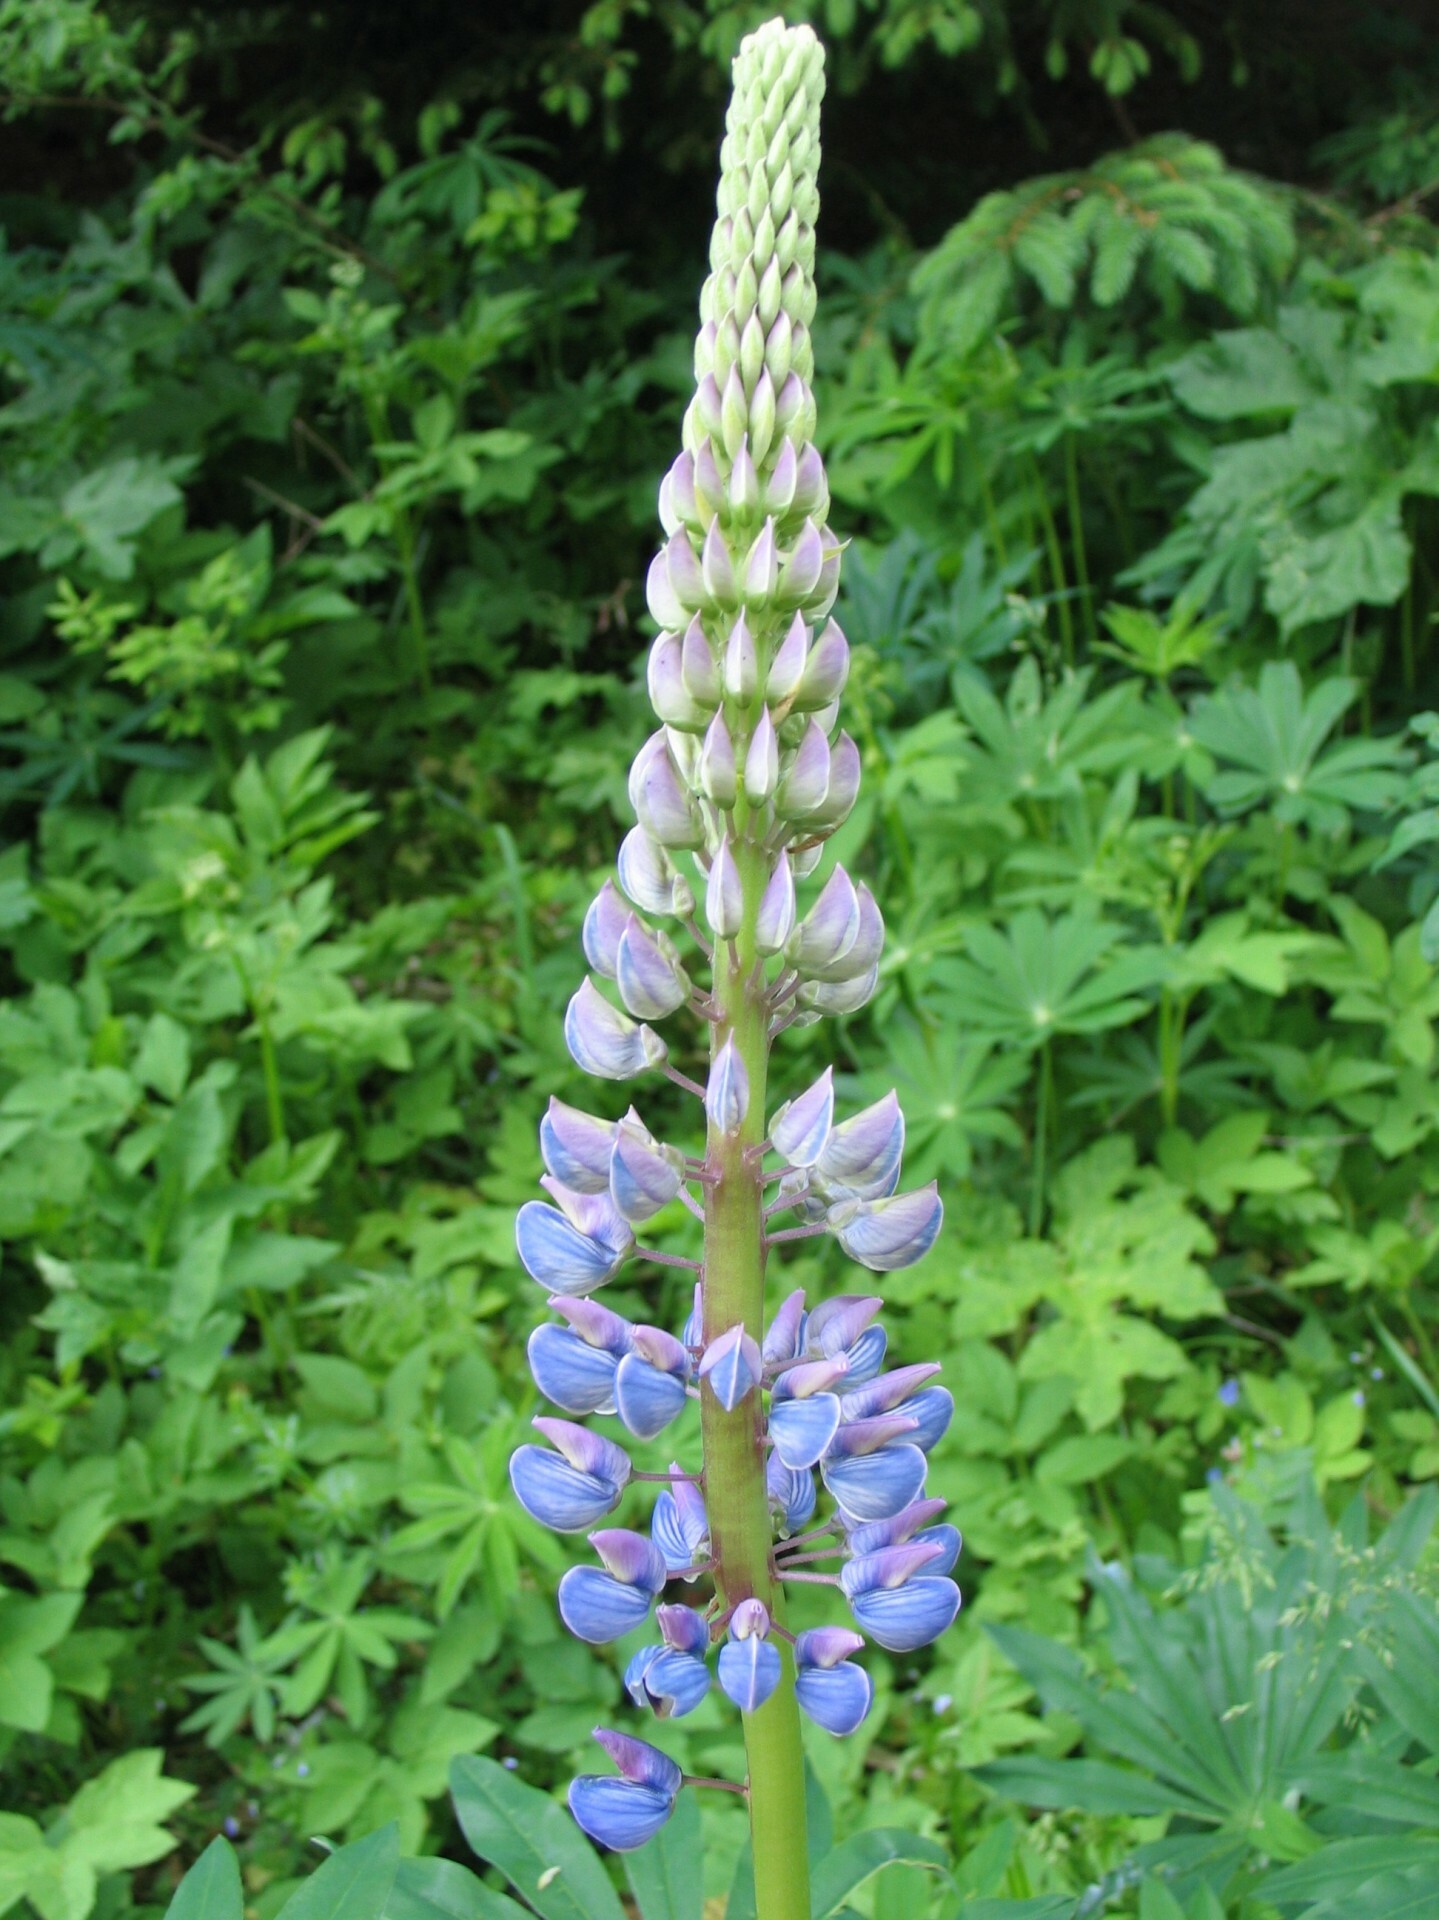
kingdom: Plantae
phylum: Tracheophyta
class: Magnoliopsida
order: Fabales
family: Fabaceae
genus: Lupinus
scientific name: Lupinus polyphyllus
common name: Garden lupin
